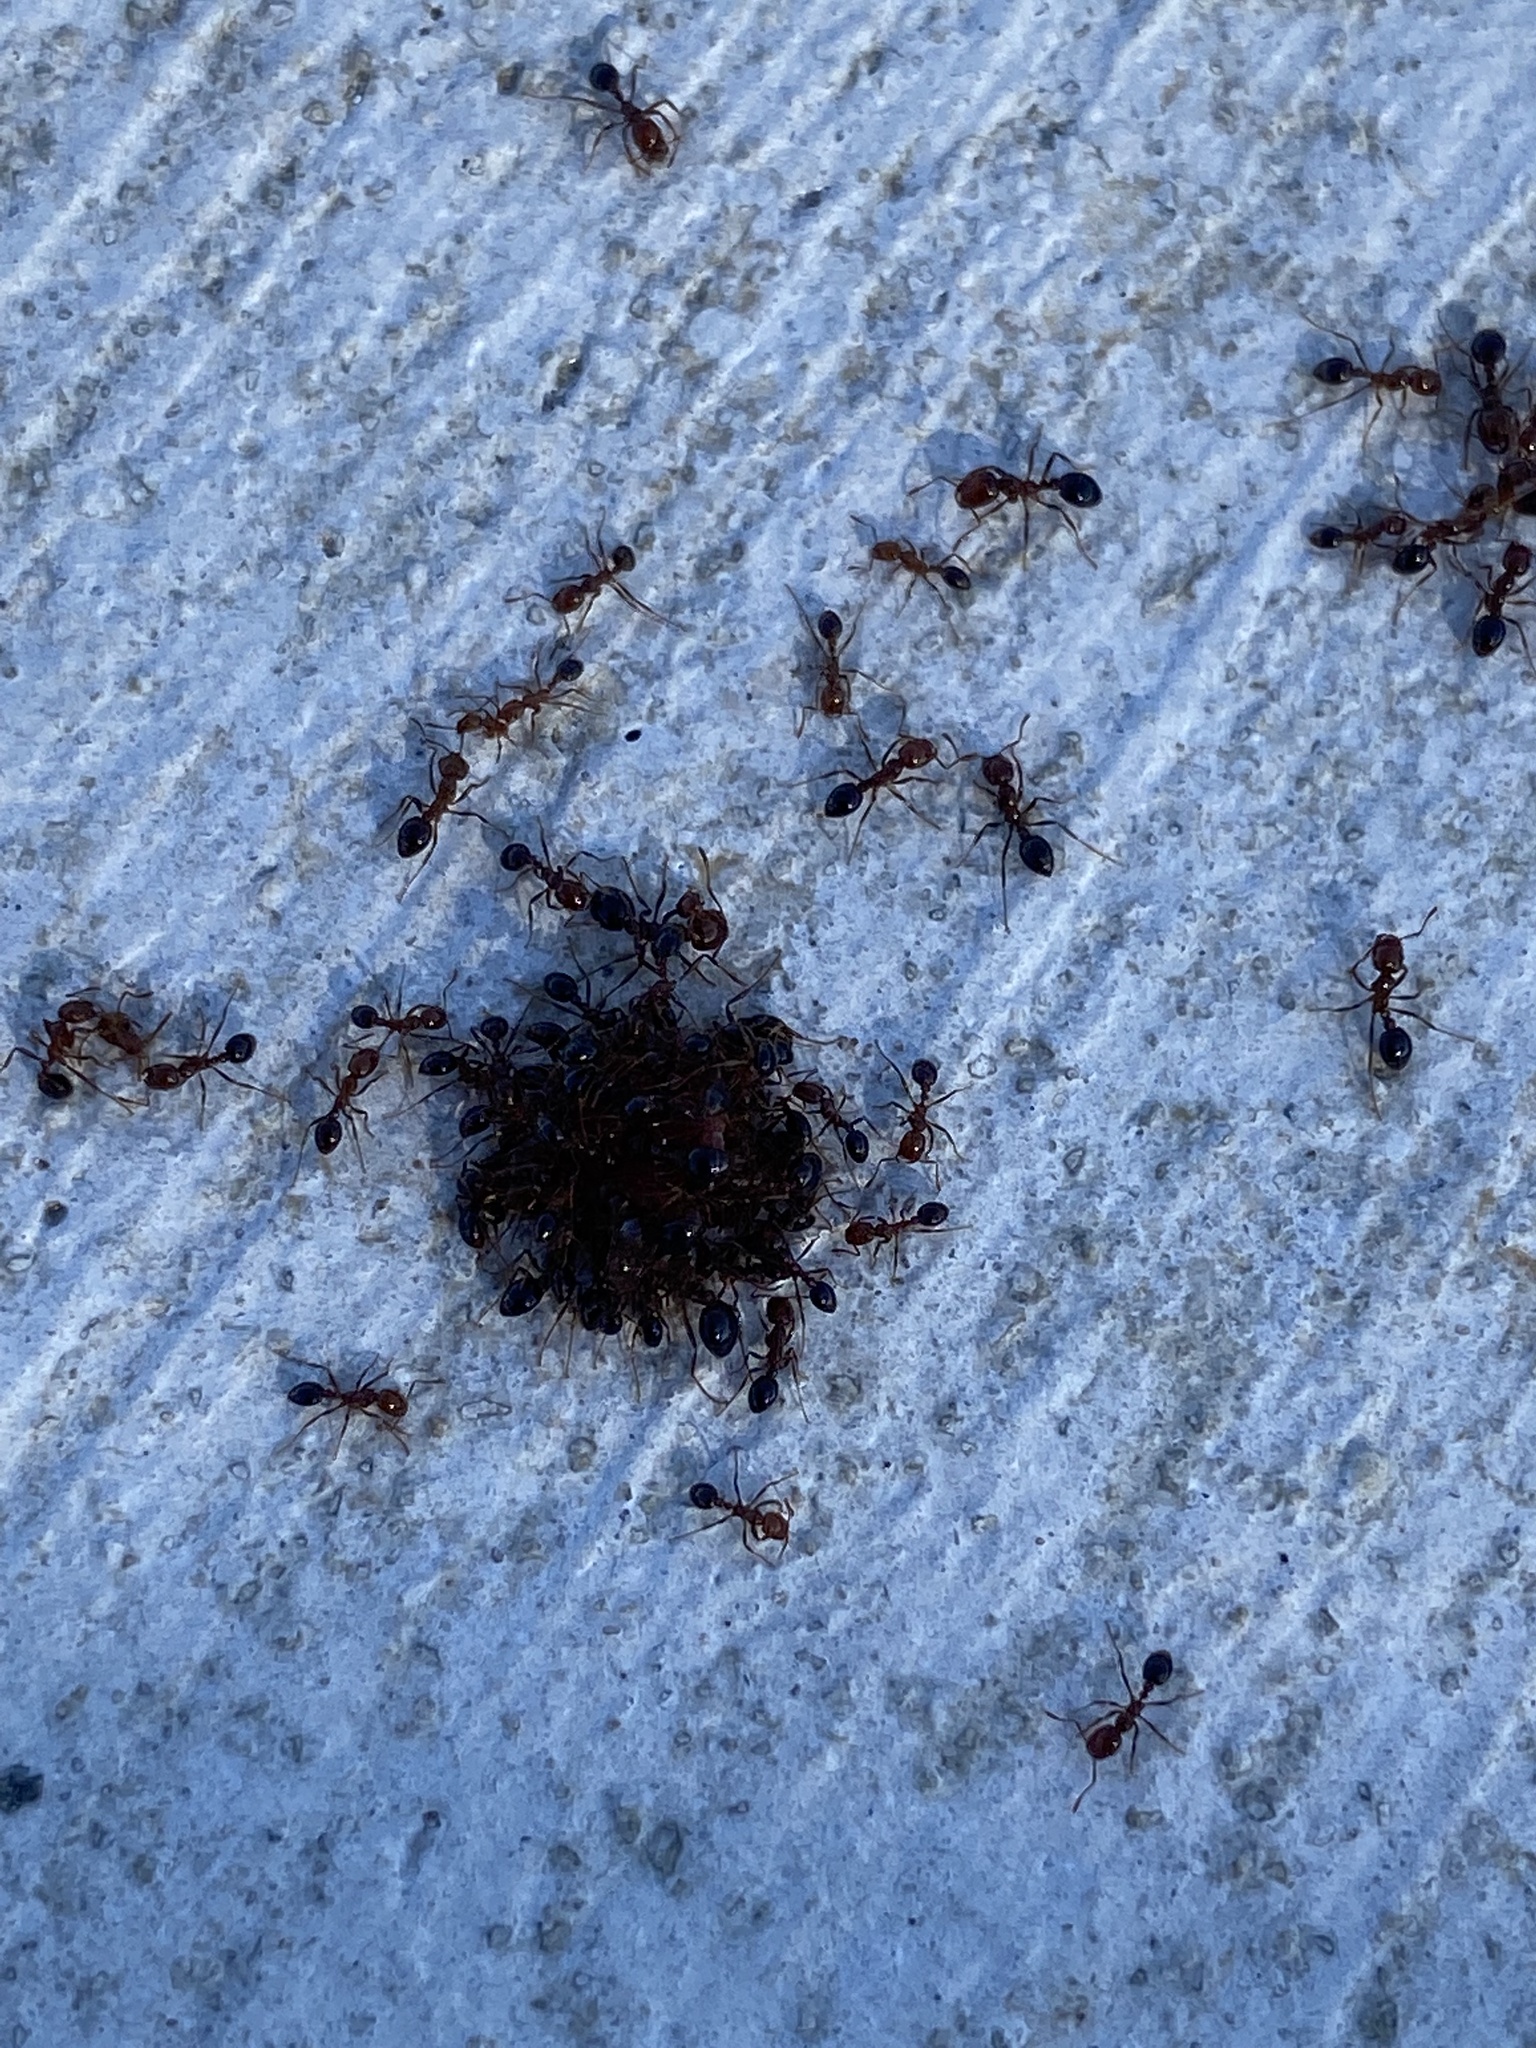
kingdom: Animalia
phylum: Arthropoda
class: Insecta
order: Hymenoptera
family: Formicidae
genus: Solenopsis
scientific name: Solenopsis invicta
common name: Red imported fire ant
